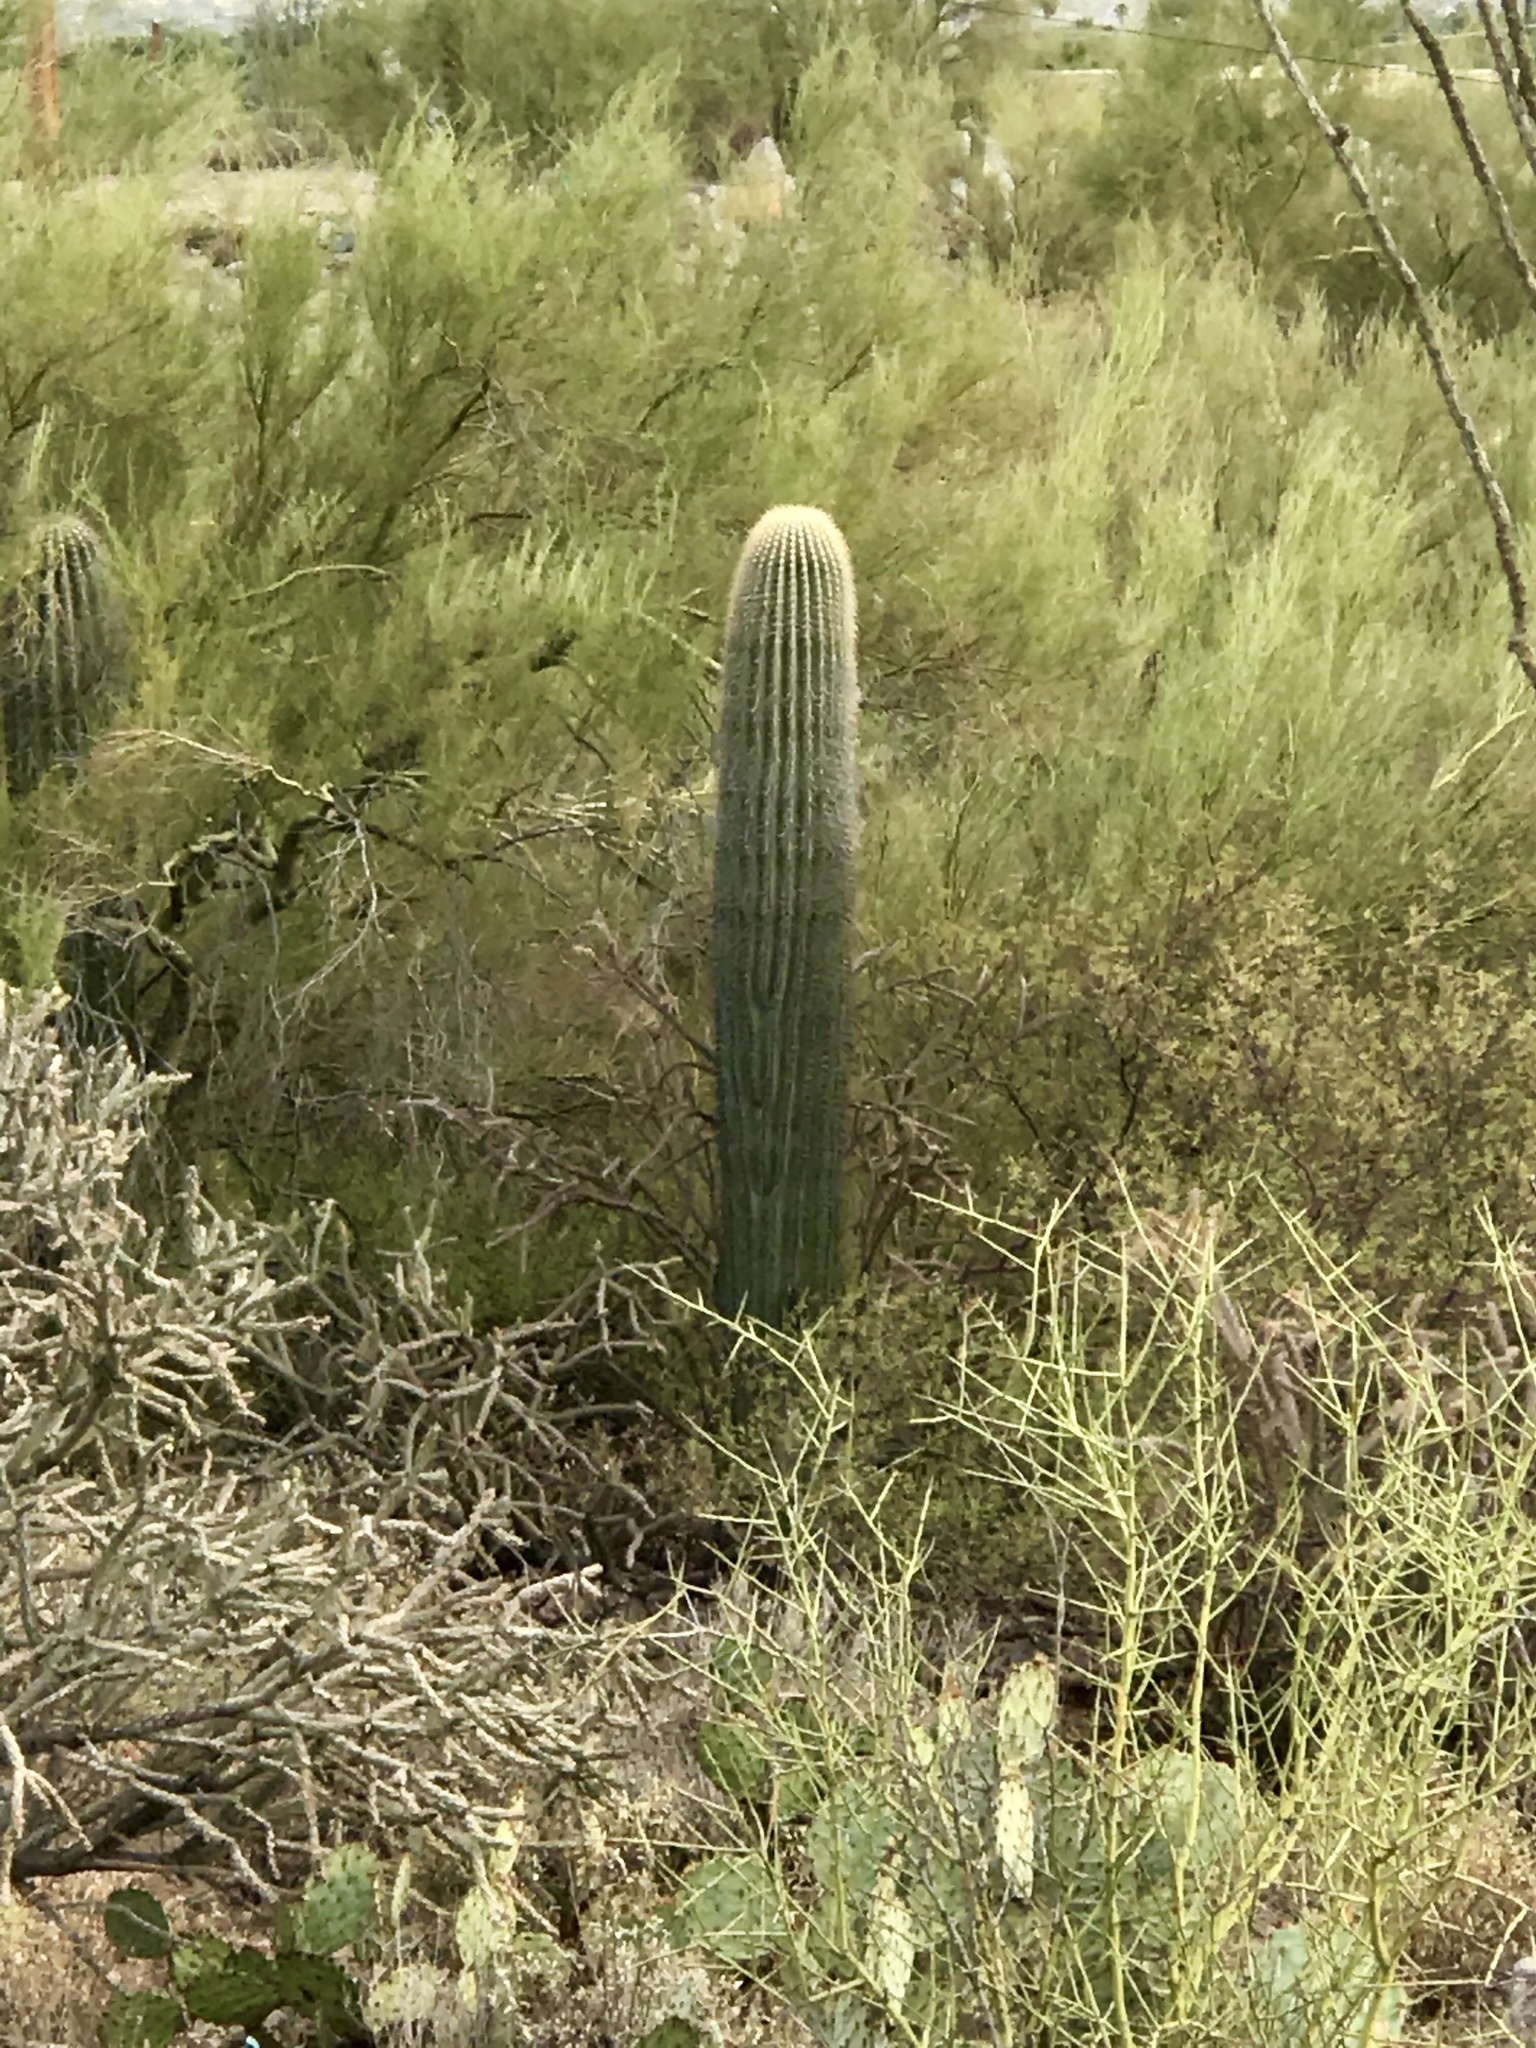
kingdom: Plantae
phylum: Tracheophyta
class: Magnoliopsida
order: Caryophyllales
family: Cactaceae
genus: Carnegiea
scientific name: Carnegiea gigantea
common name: Saguaro
